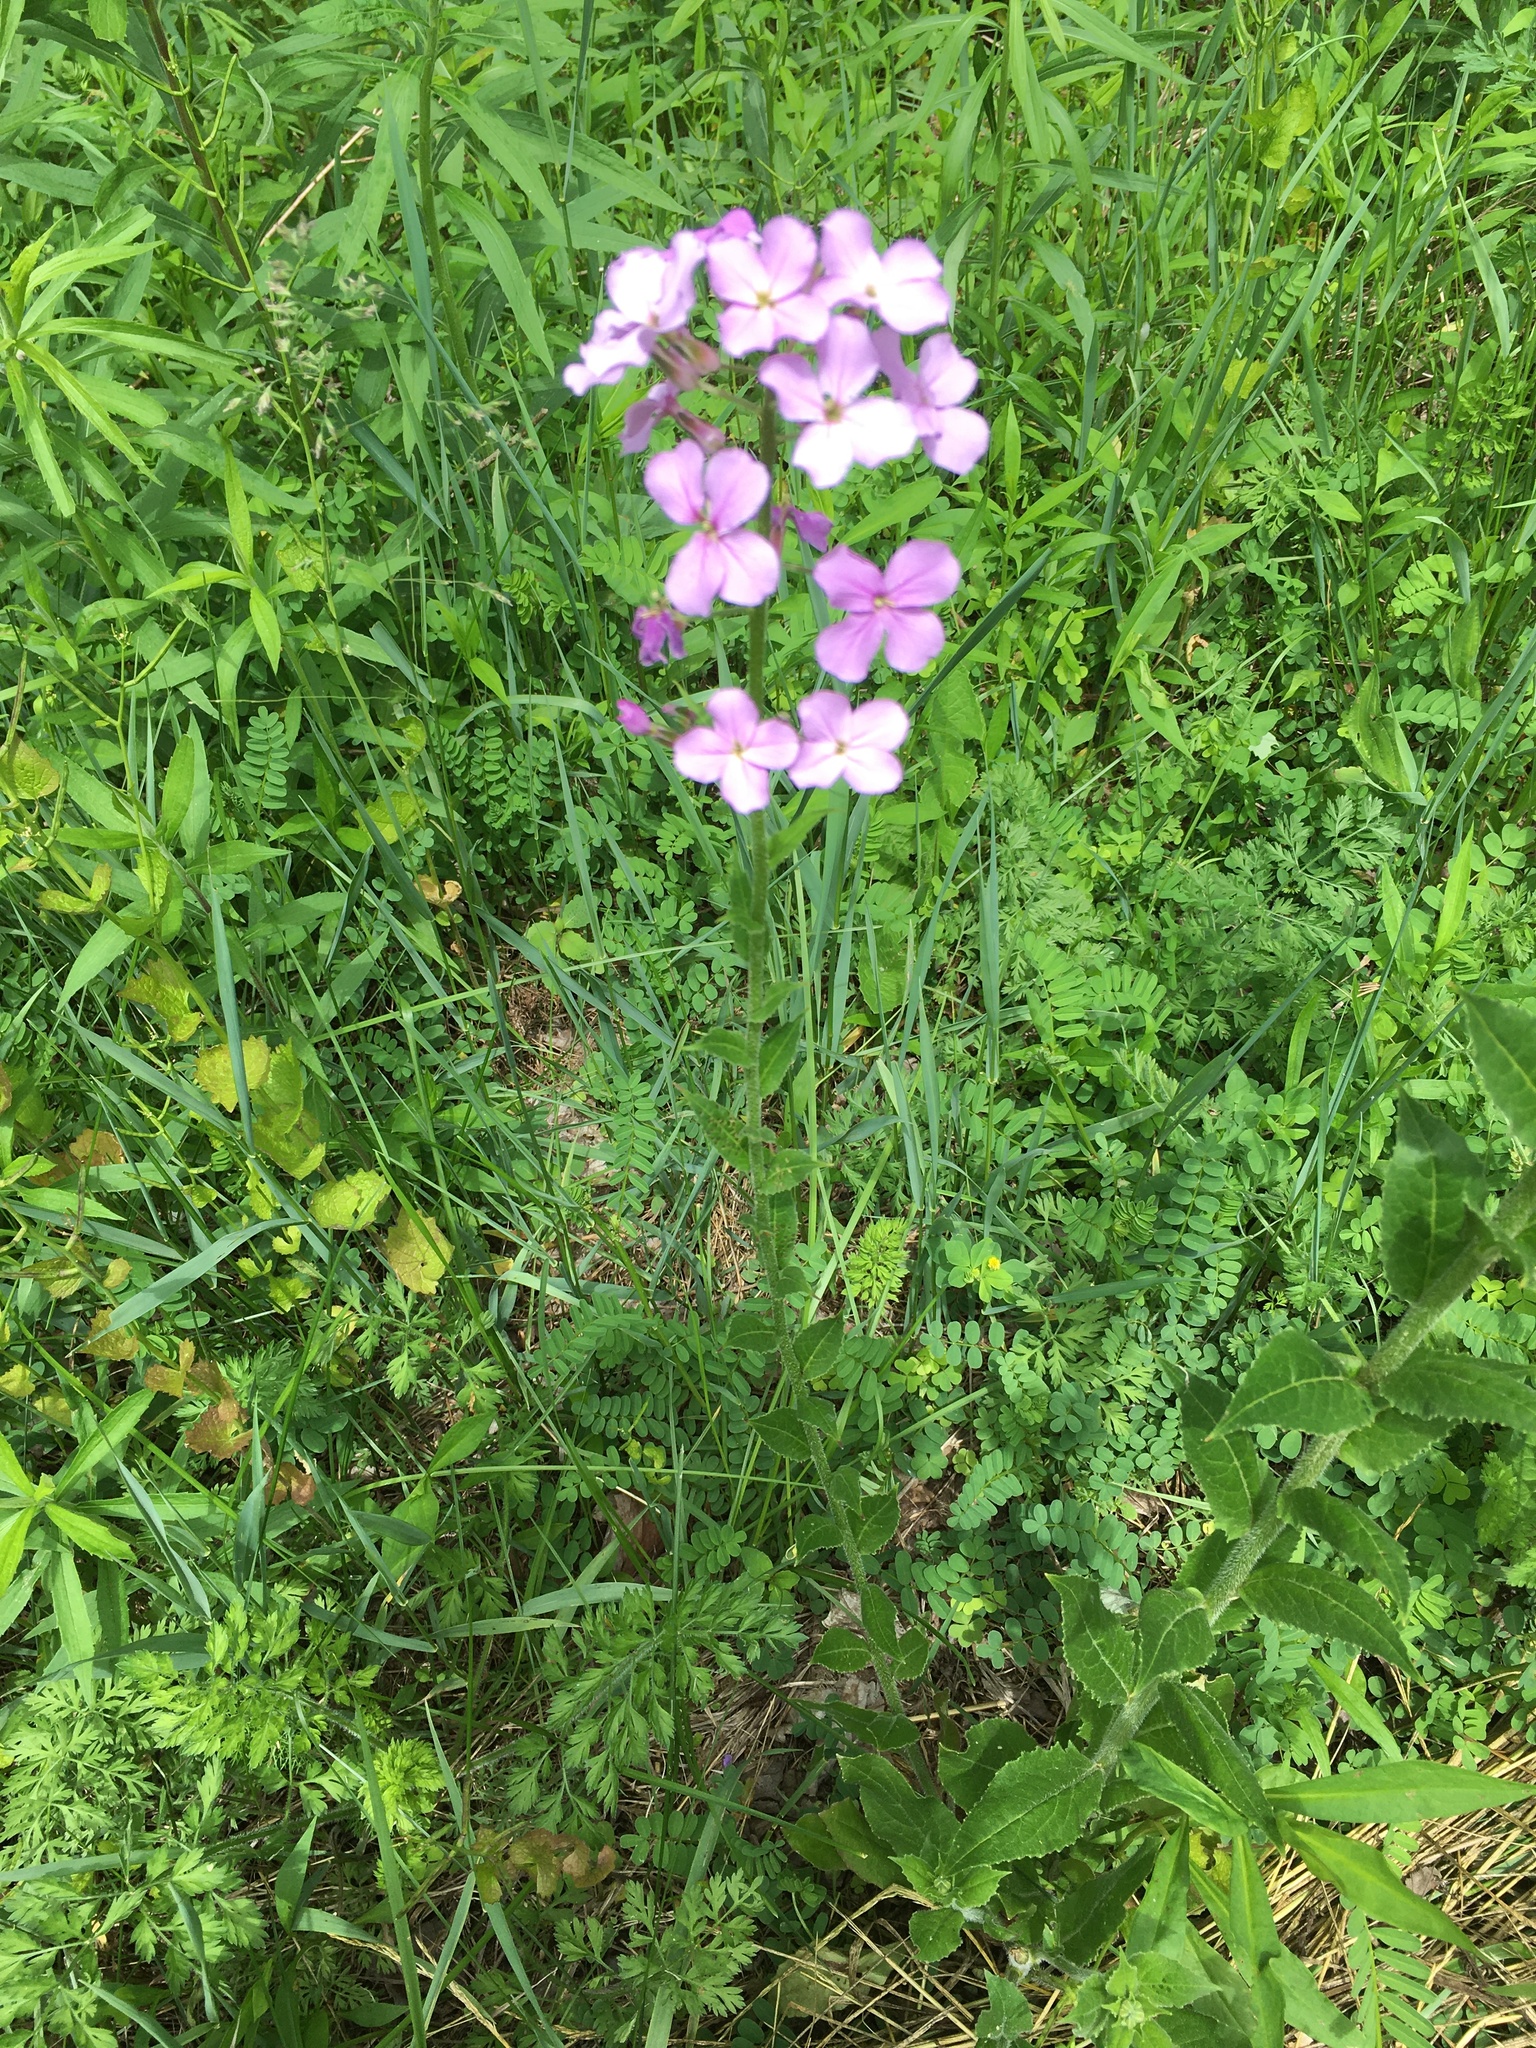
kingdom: Plantae
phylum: Tracheophyta
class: Magnoliopsida
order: Brassicales
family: Brassicaceae
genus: Hesperis
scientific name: Hesperis matronalis
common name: Dame's-violet
